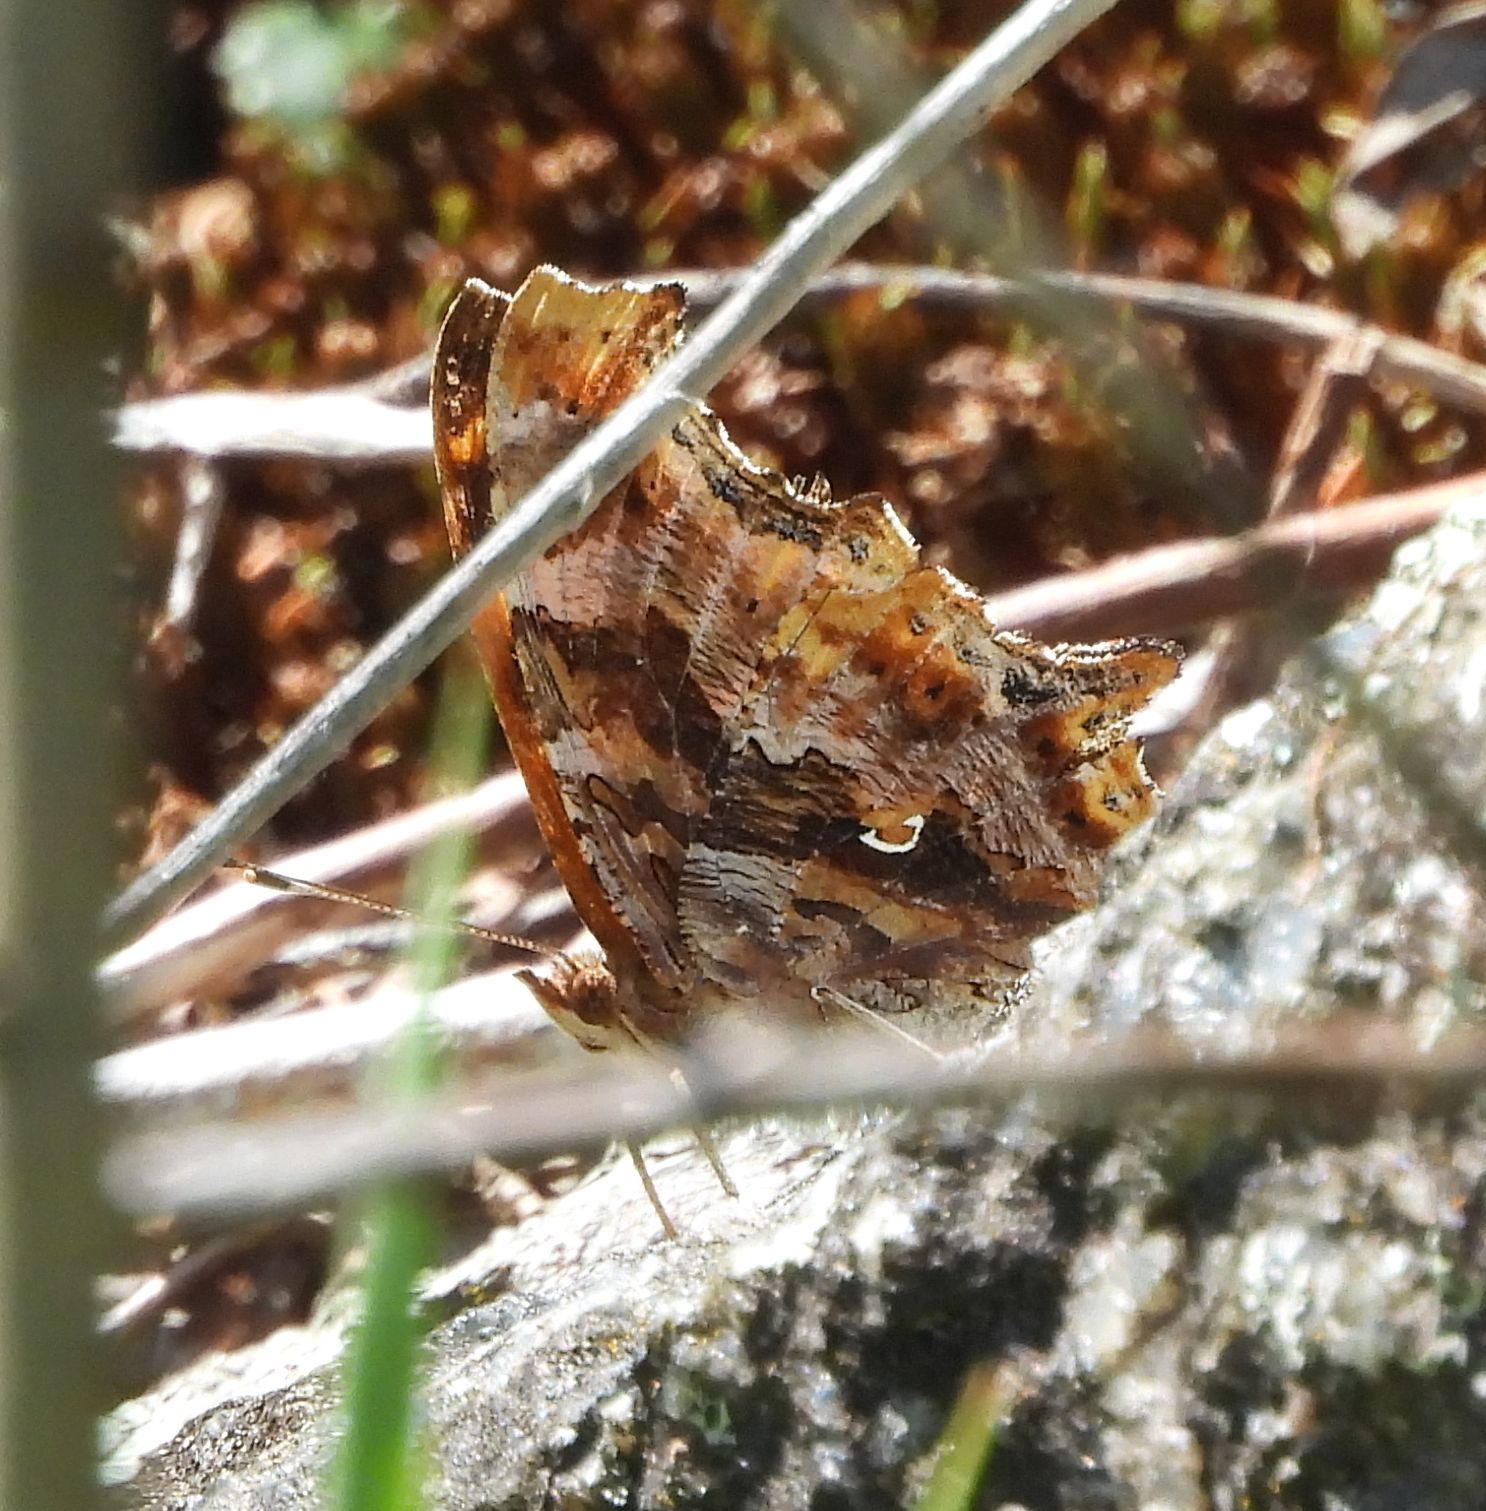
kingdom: Animalia
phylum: Arthropoda
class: Insecta
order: Lepidoptera
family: Nymphalidae
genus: Polygonia
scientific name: Polygonia comma
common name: Eastern comma
